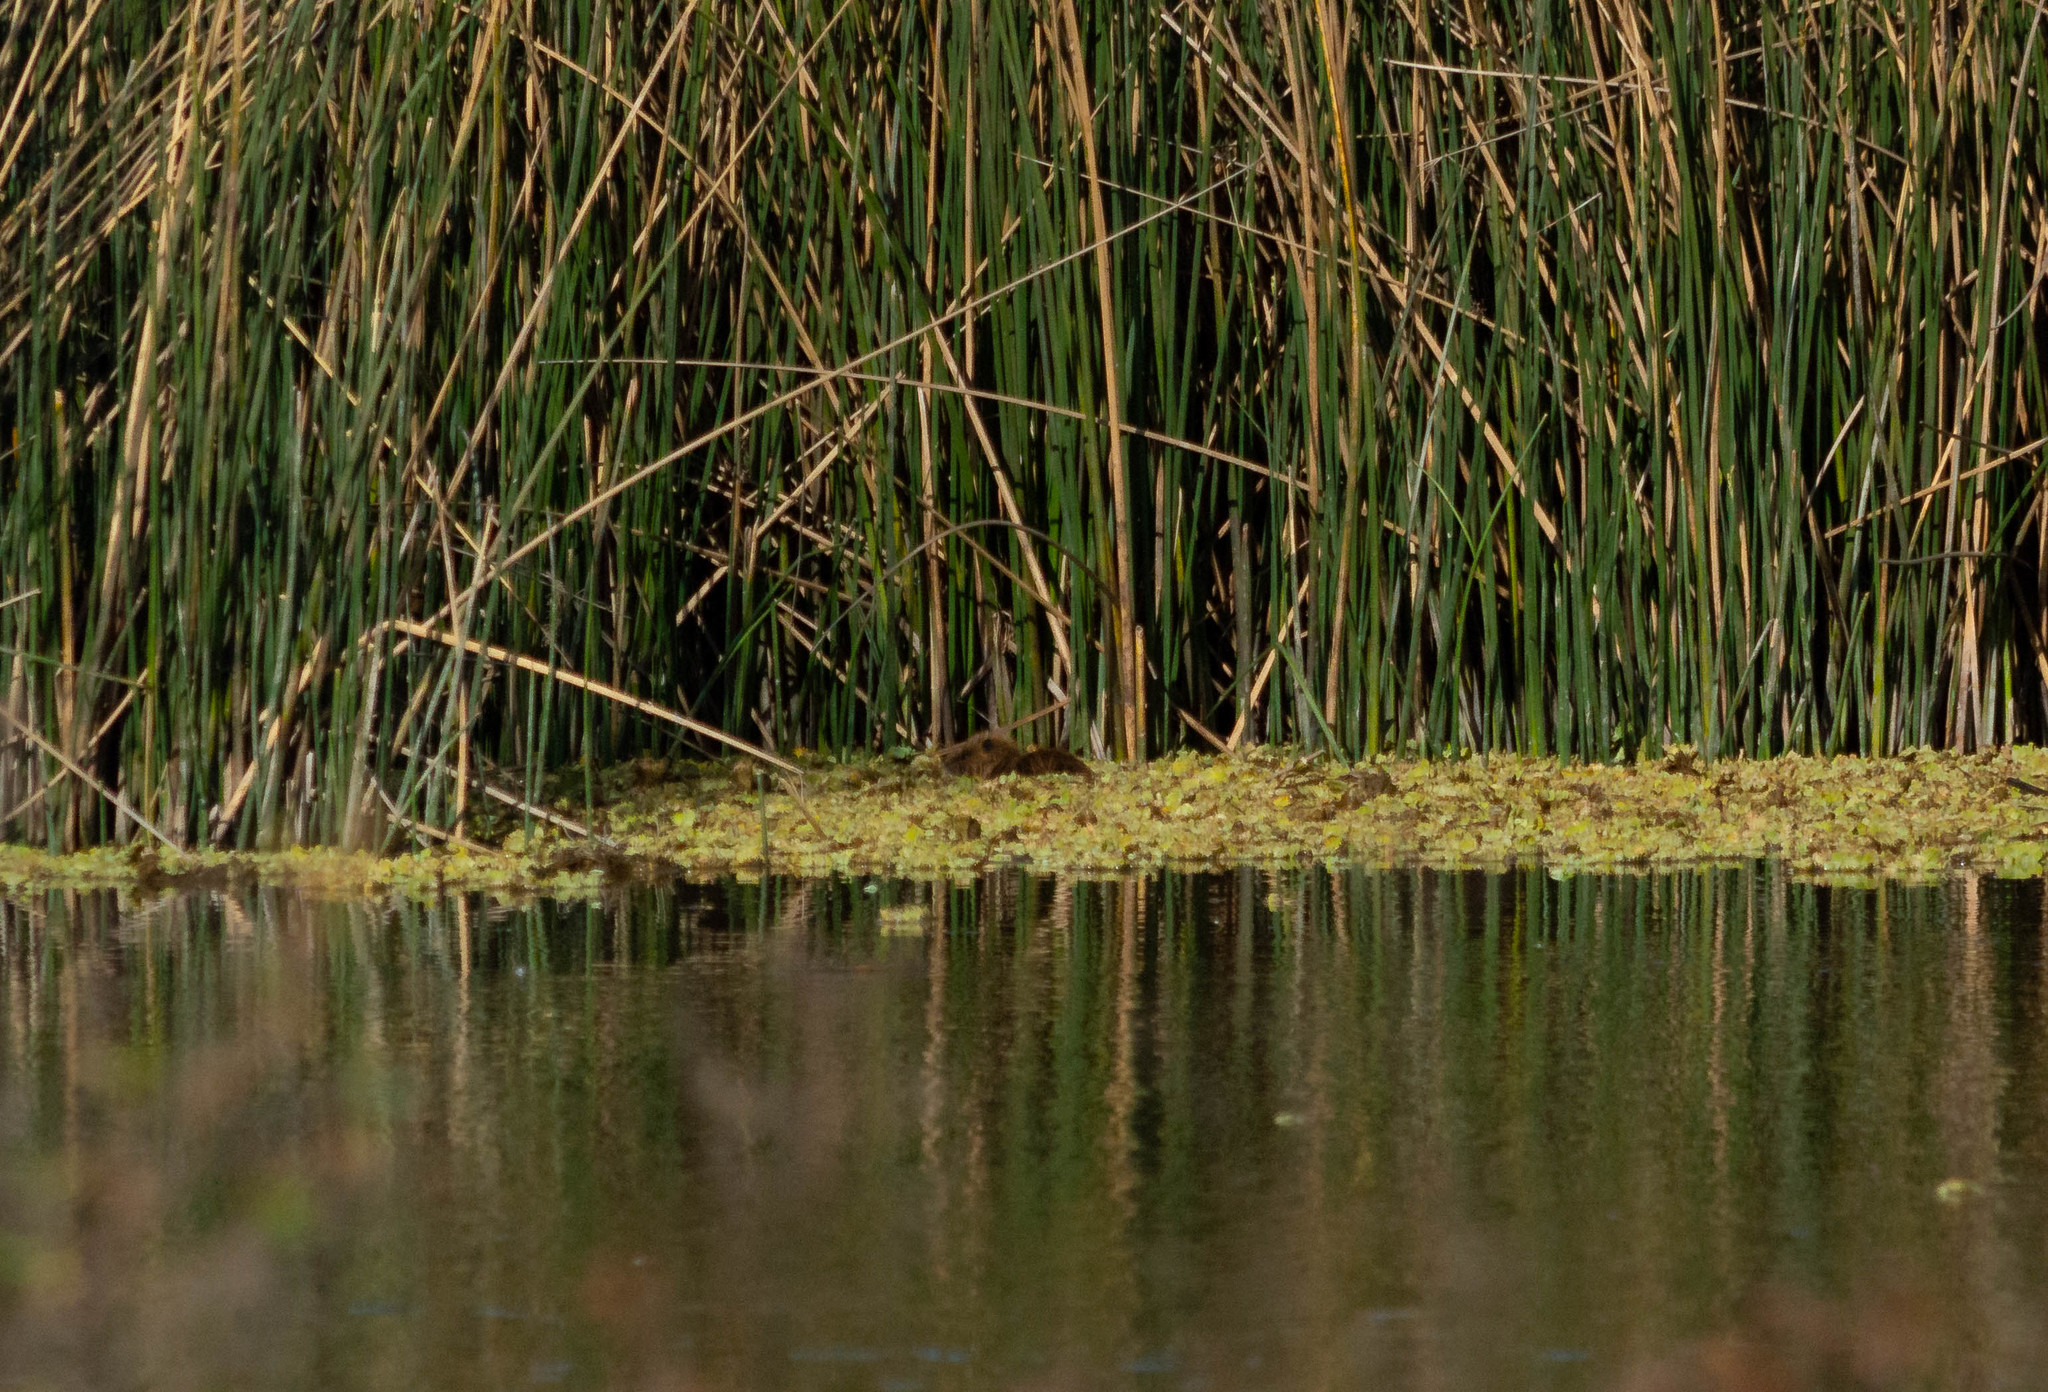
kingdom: Animalia
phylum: Chordata
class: Mammalia
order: Rodentia
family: Myocastoridae
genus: Myocastor
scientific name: Myocastor coypus
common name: Coypu
